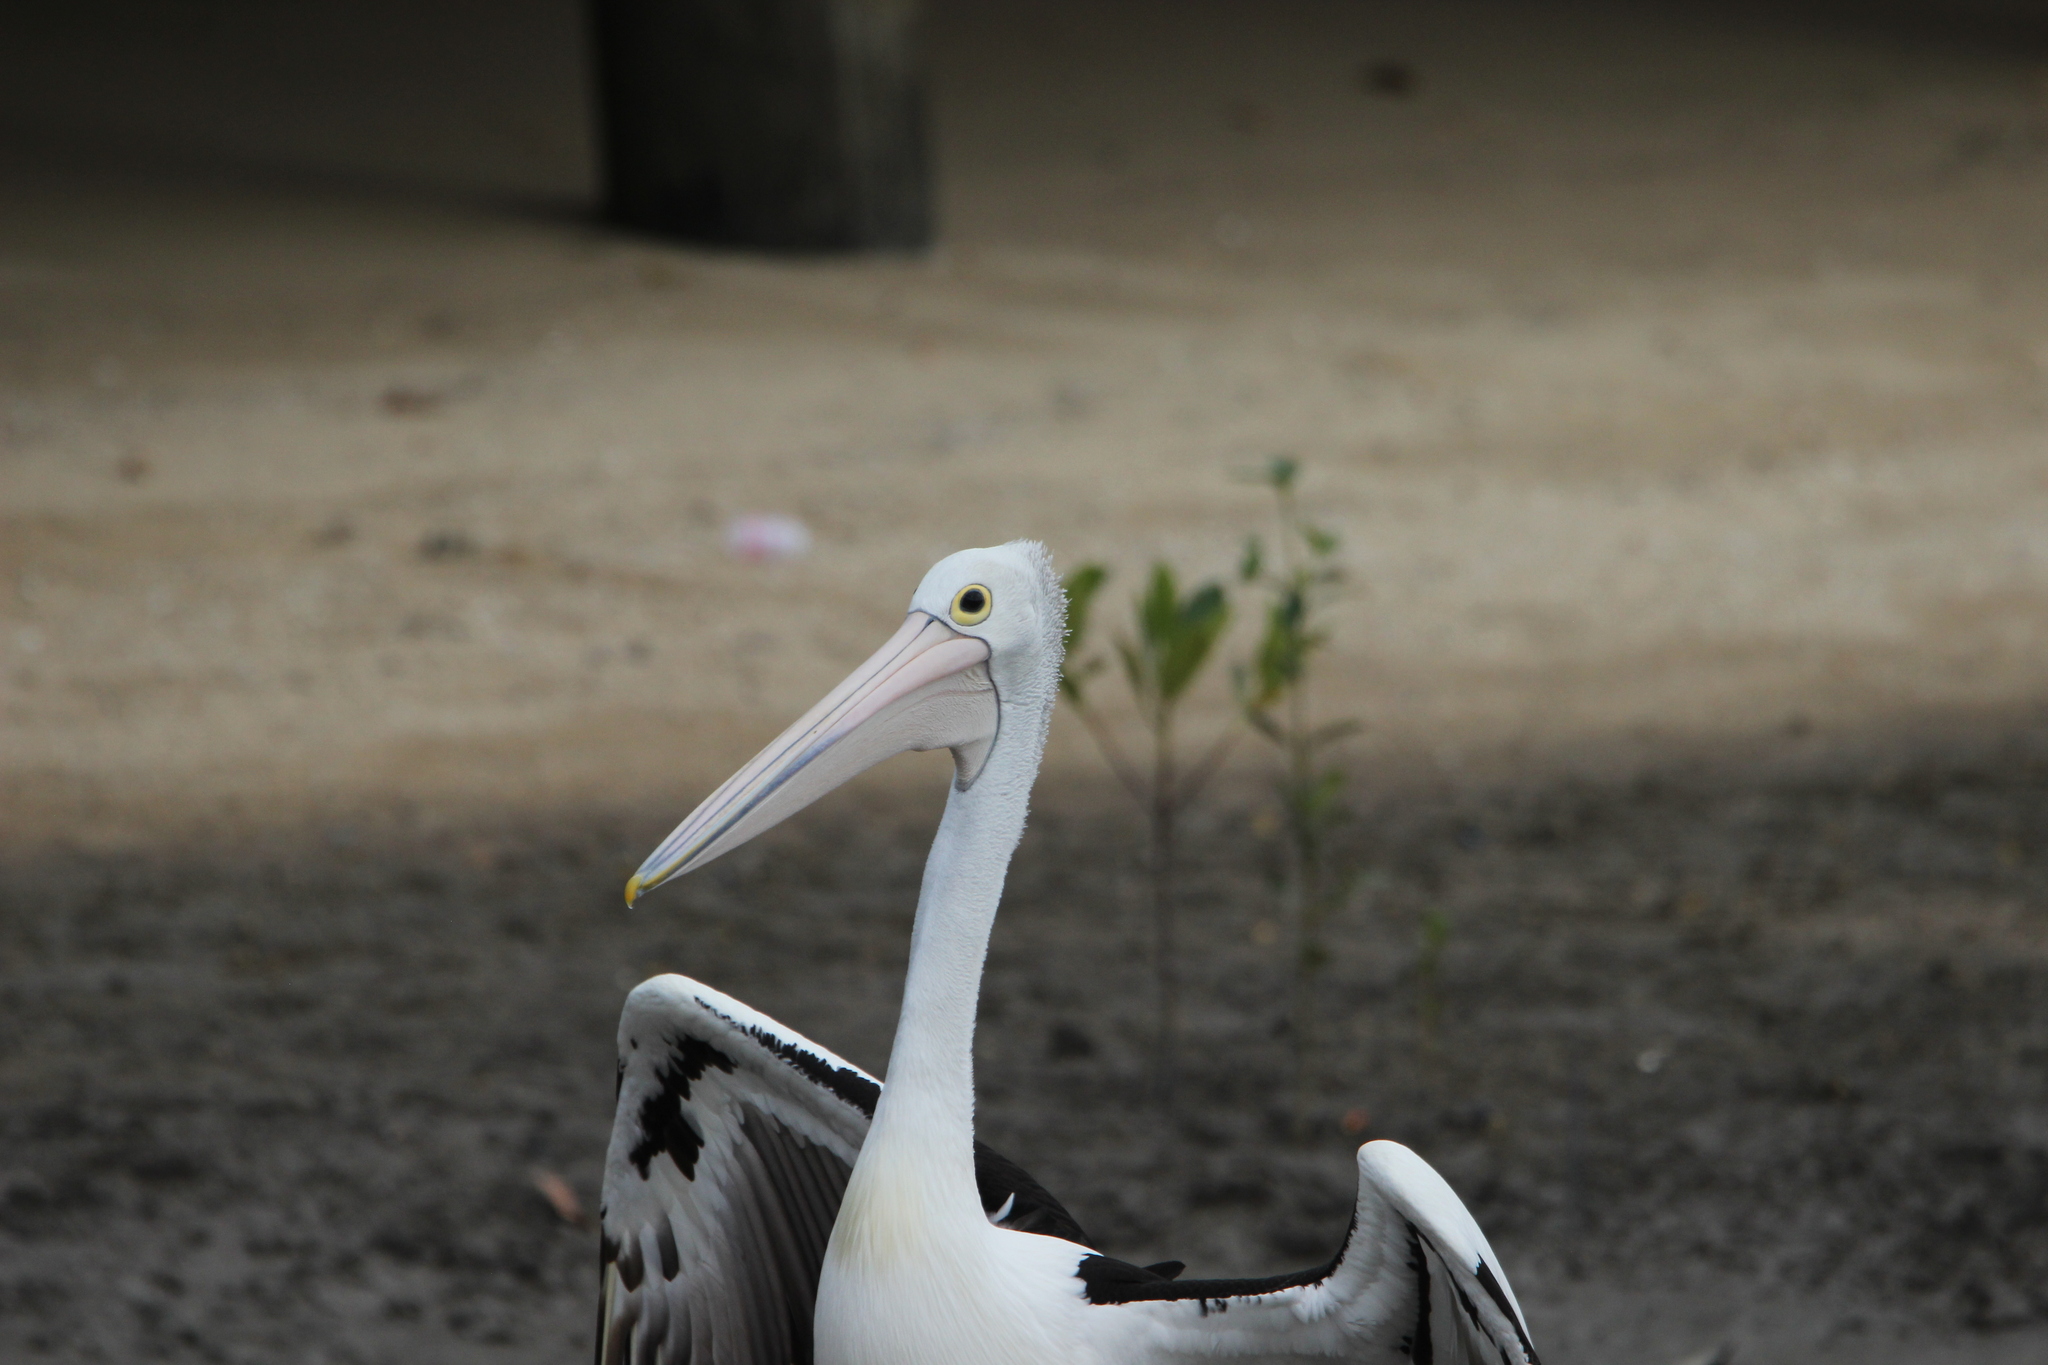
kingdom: Animalia
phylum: Chordata
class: Aves
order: Pelecaniformes
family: Pelecanidae
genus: Pelecanus
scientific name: Pelecanus conspicillatus
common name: Australian pelican
